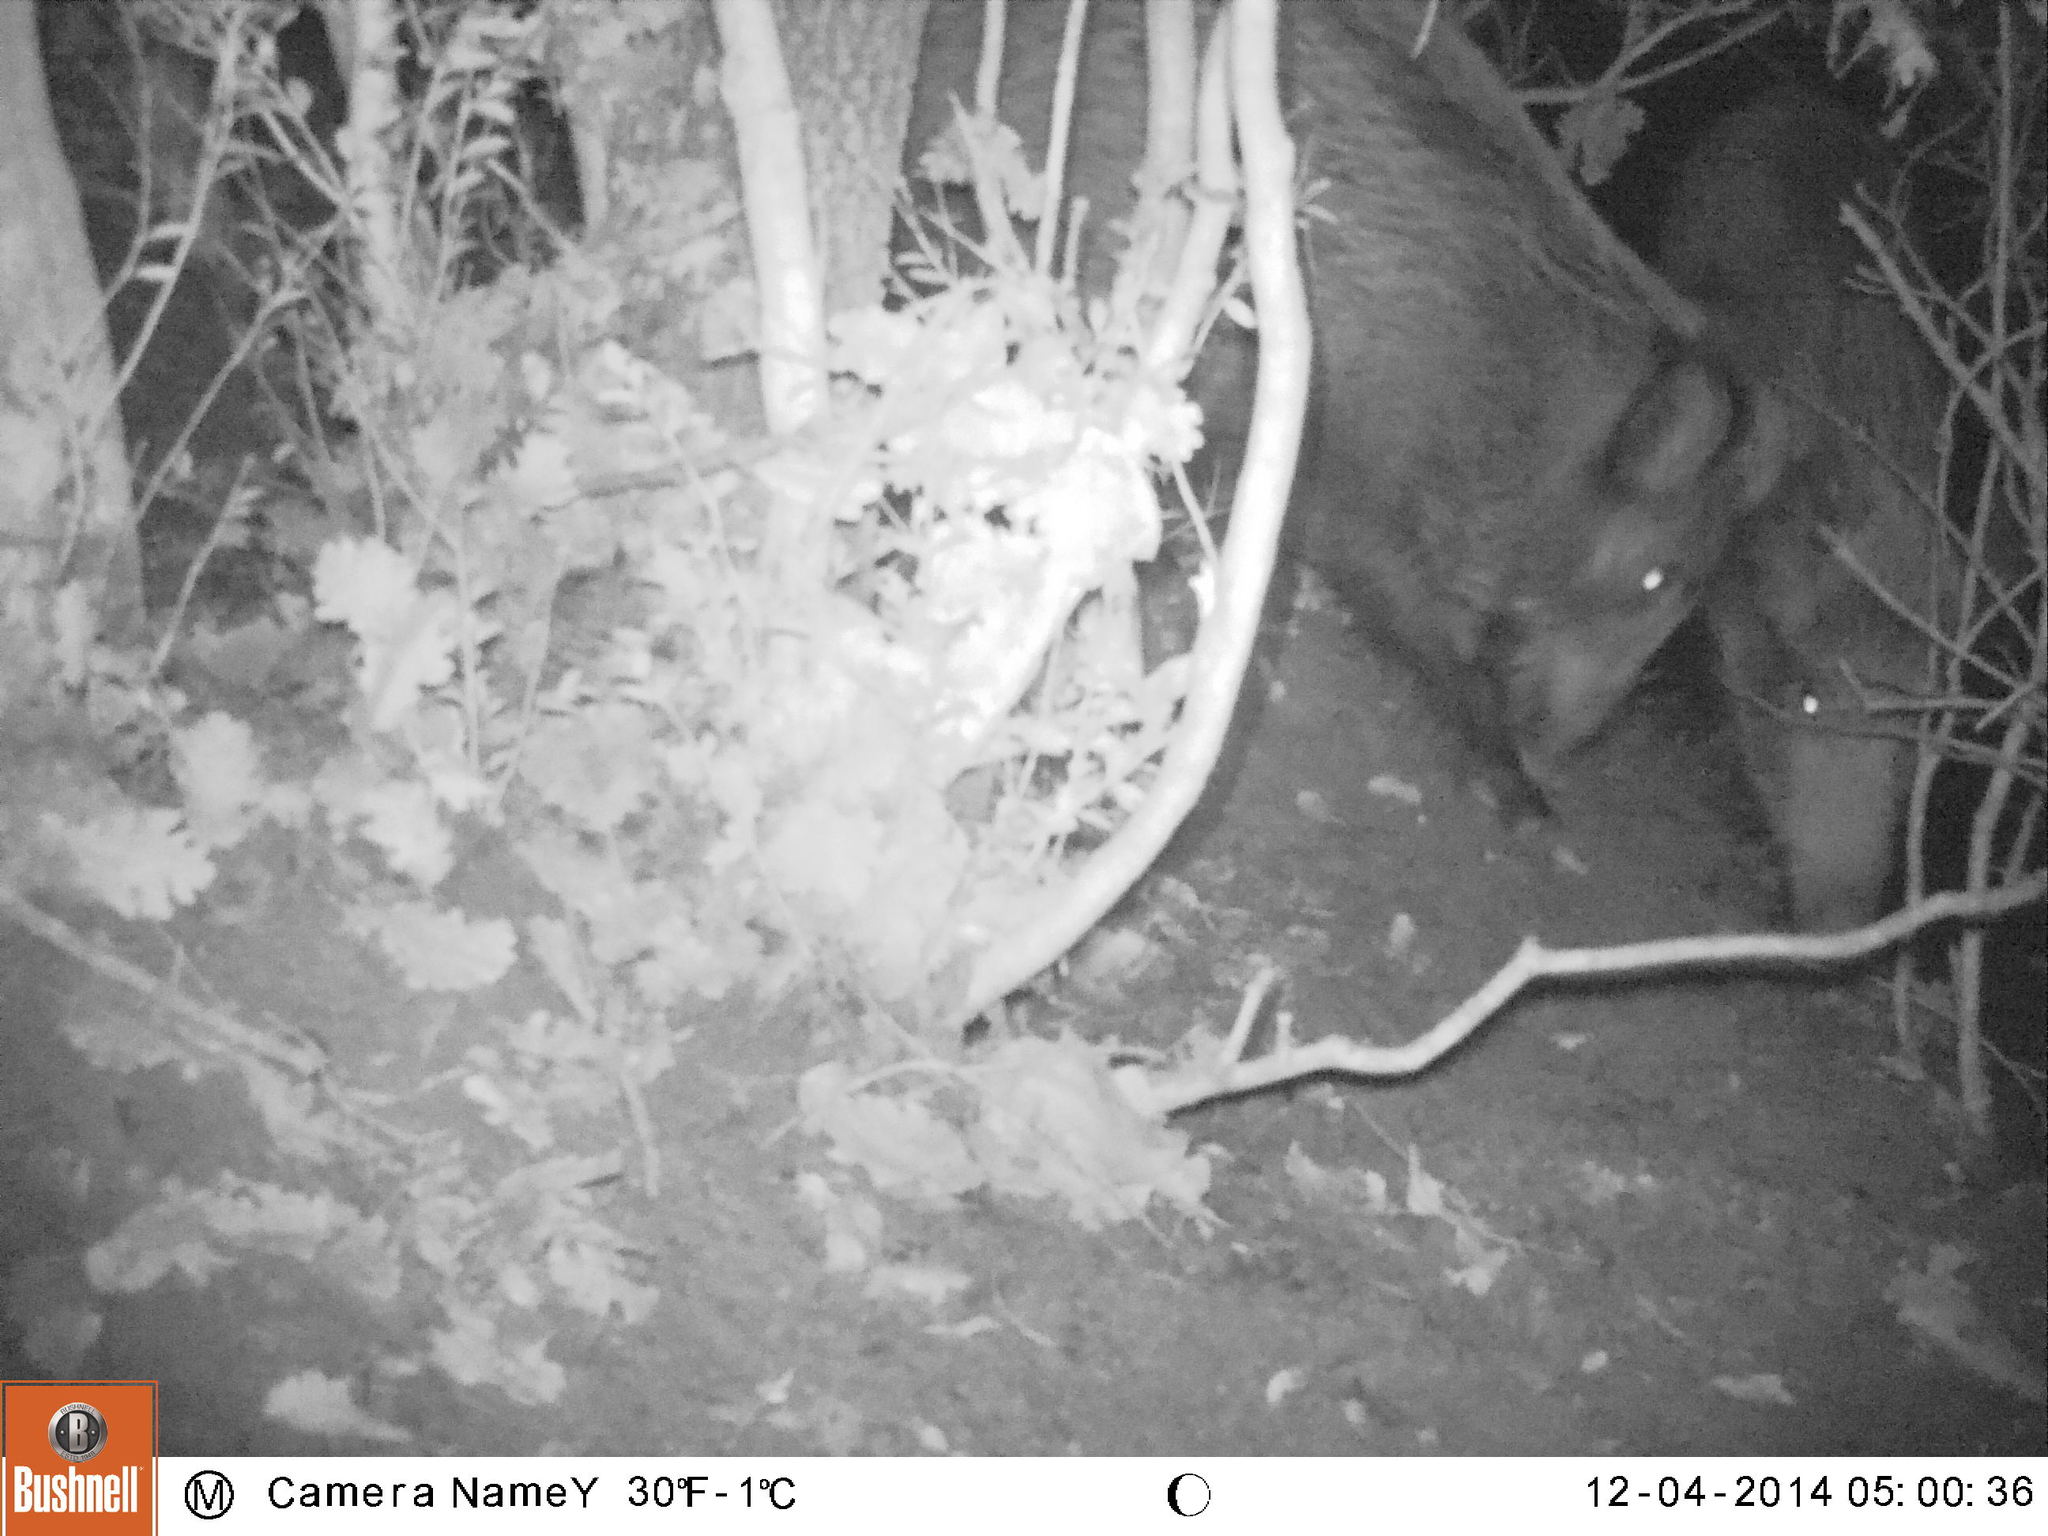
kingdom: Animalia
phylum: Chordata
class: Mammalia
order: Artiodactyla
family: Suidae
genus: Sus
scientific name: Sus scrofa
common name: Wild boar
